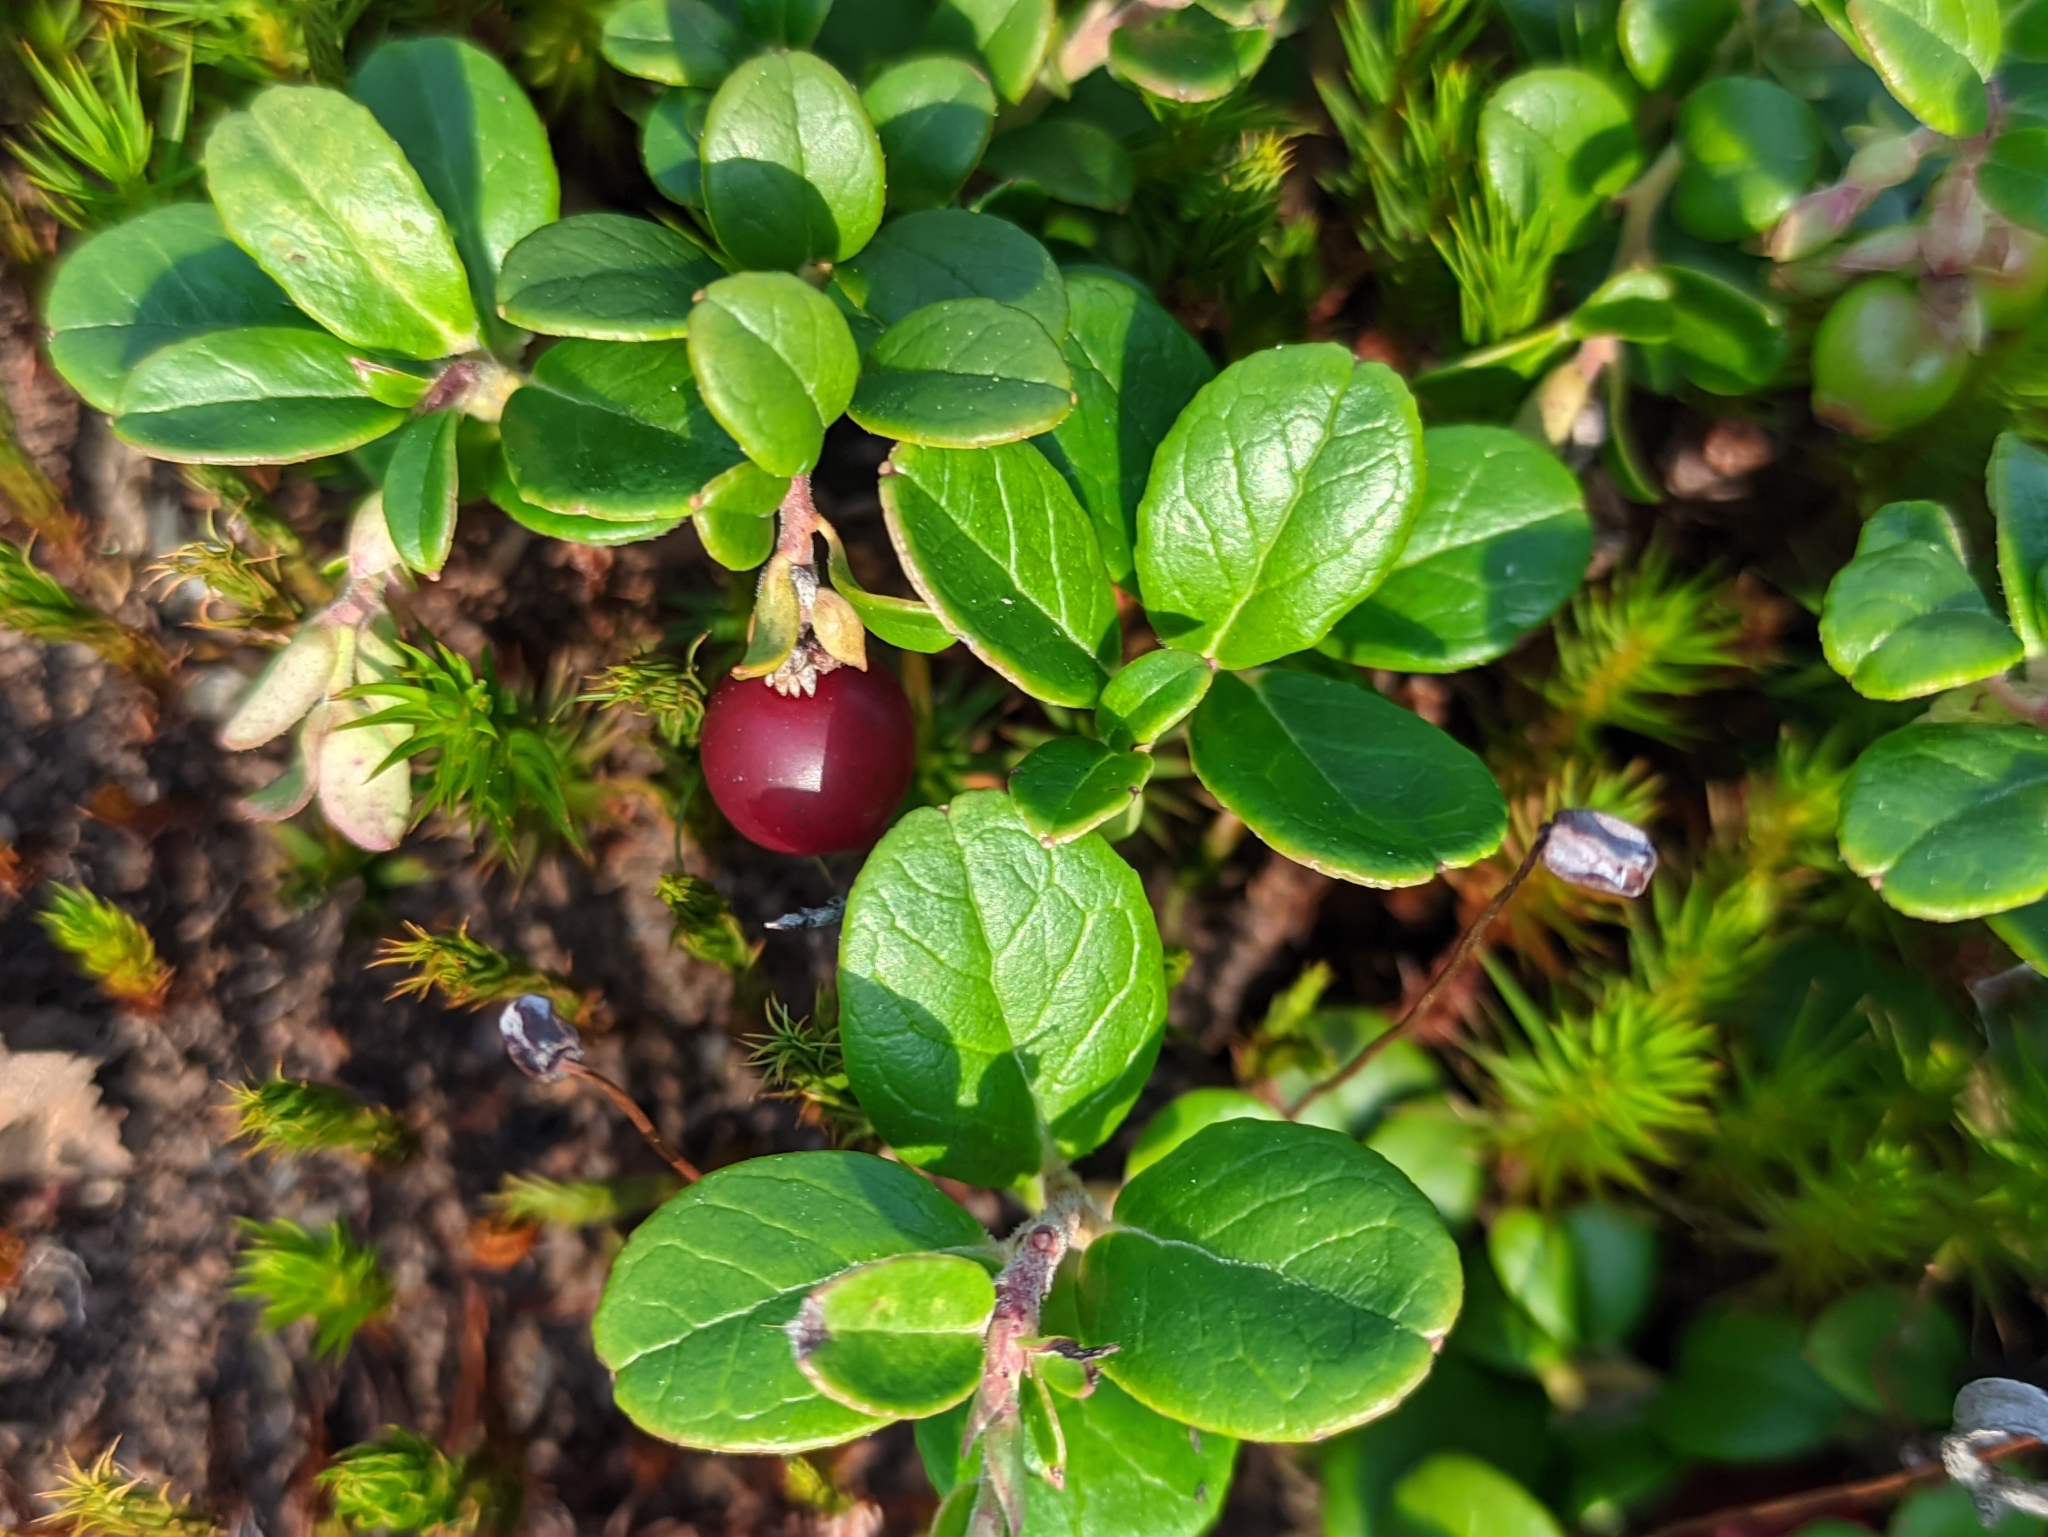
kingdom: Plantae
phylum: Tracheophyta
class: Magnoliopsida
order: Ericales
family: Ericaceae
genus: Vaccinium
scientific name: Vaccinium vitis-idaea
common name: Cowberry
